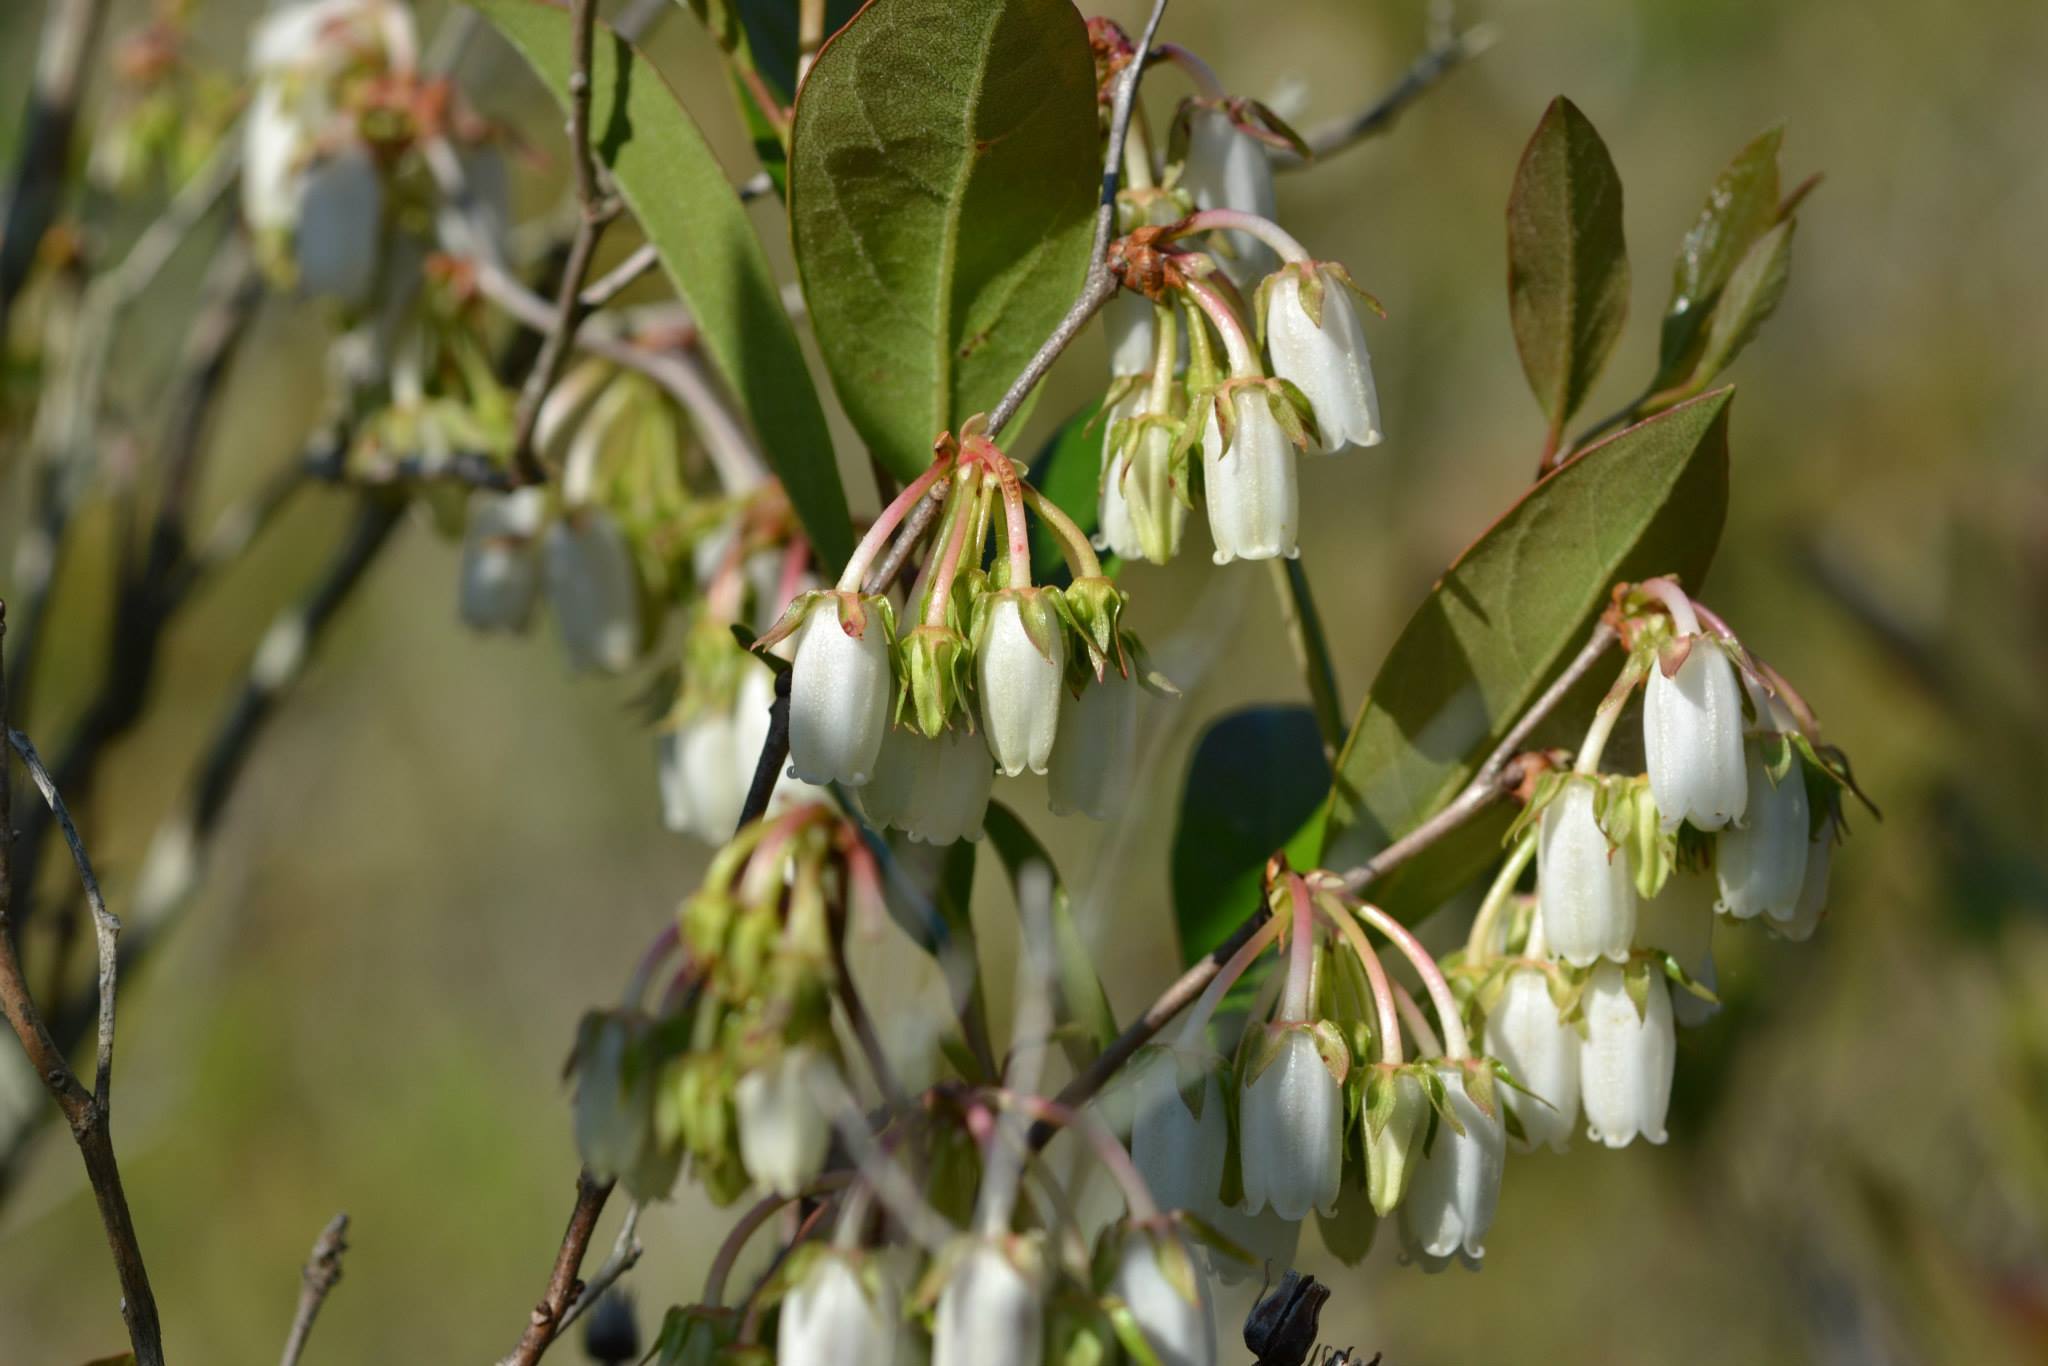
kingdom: Plantae
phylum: Tracheophyta
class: Magnoliopsida
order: Ericales
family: Ericaceae
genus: Lyonia
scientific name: Lyonia mariana
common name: Staggerbush
